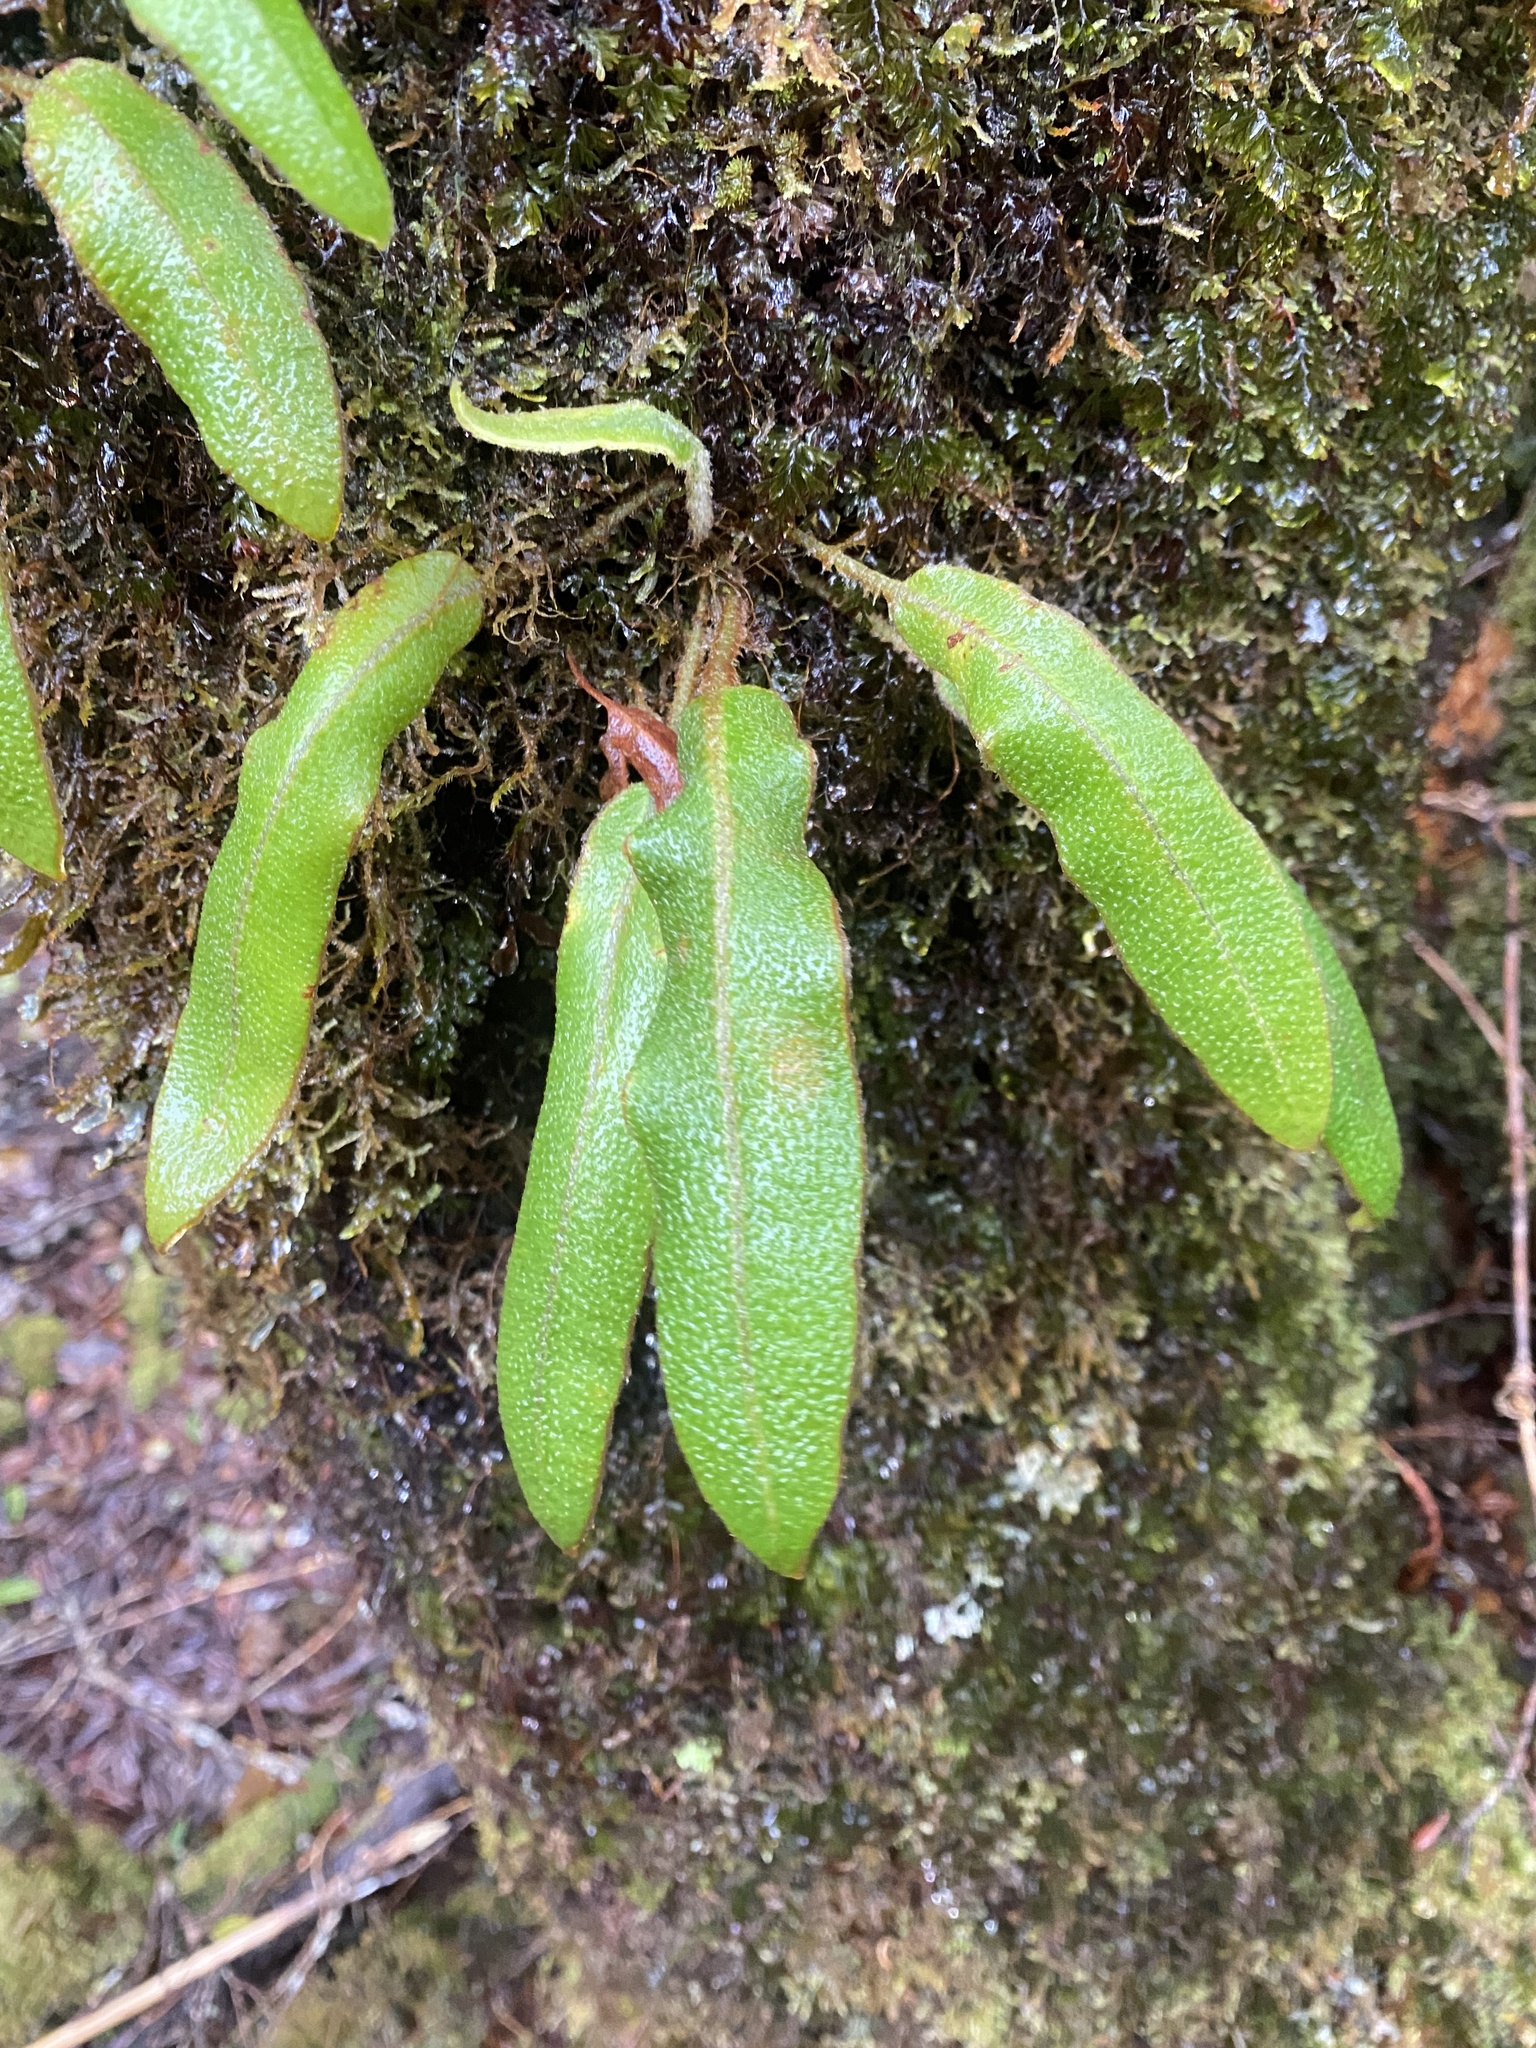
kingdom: Plantae
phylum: Tracheophyta
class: Polypodiopsida
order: Polypodiales
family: Dryopteridaceae
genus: Elaphoglossum
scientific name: Elaphoglossum paleaceum
